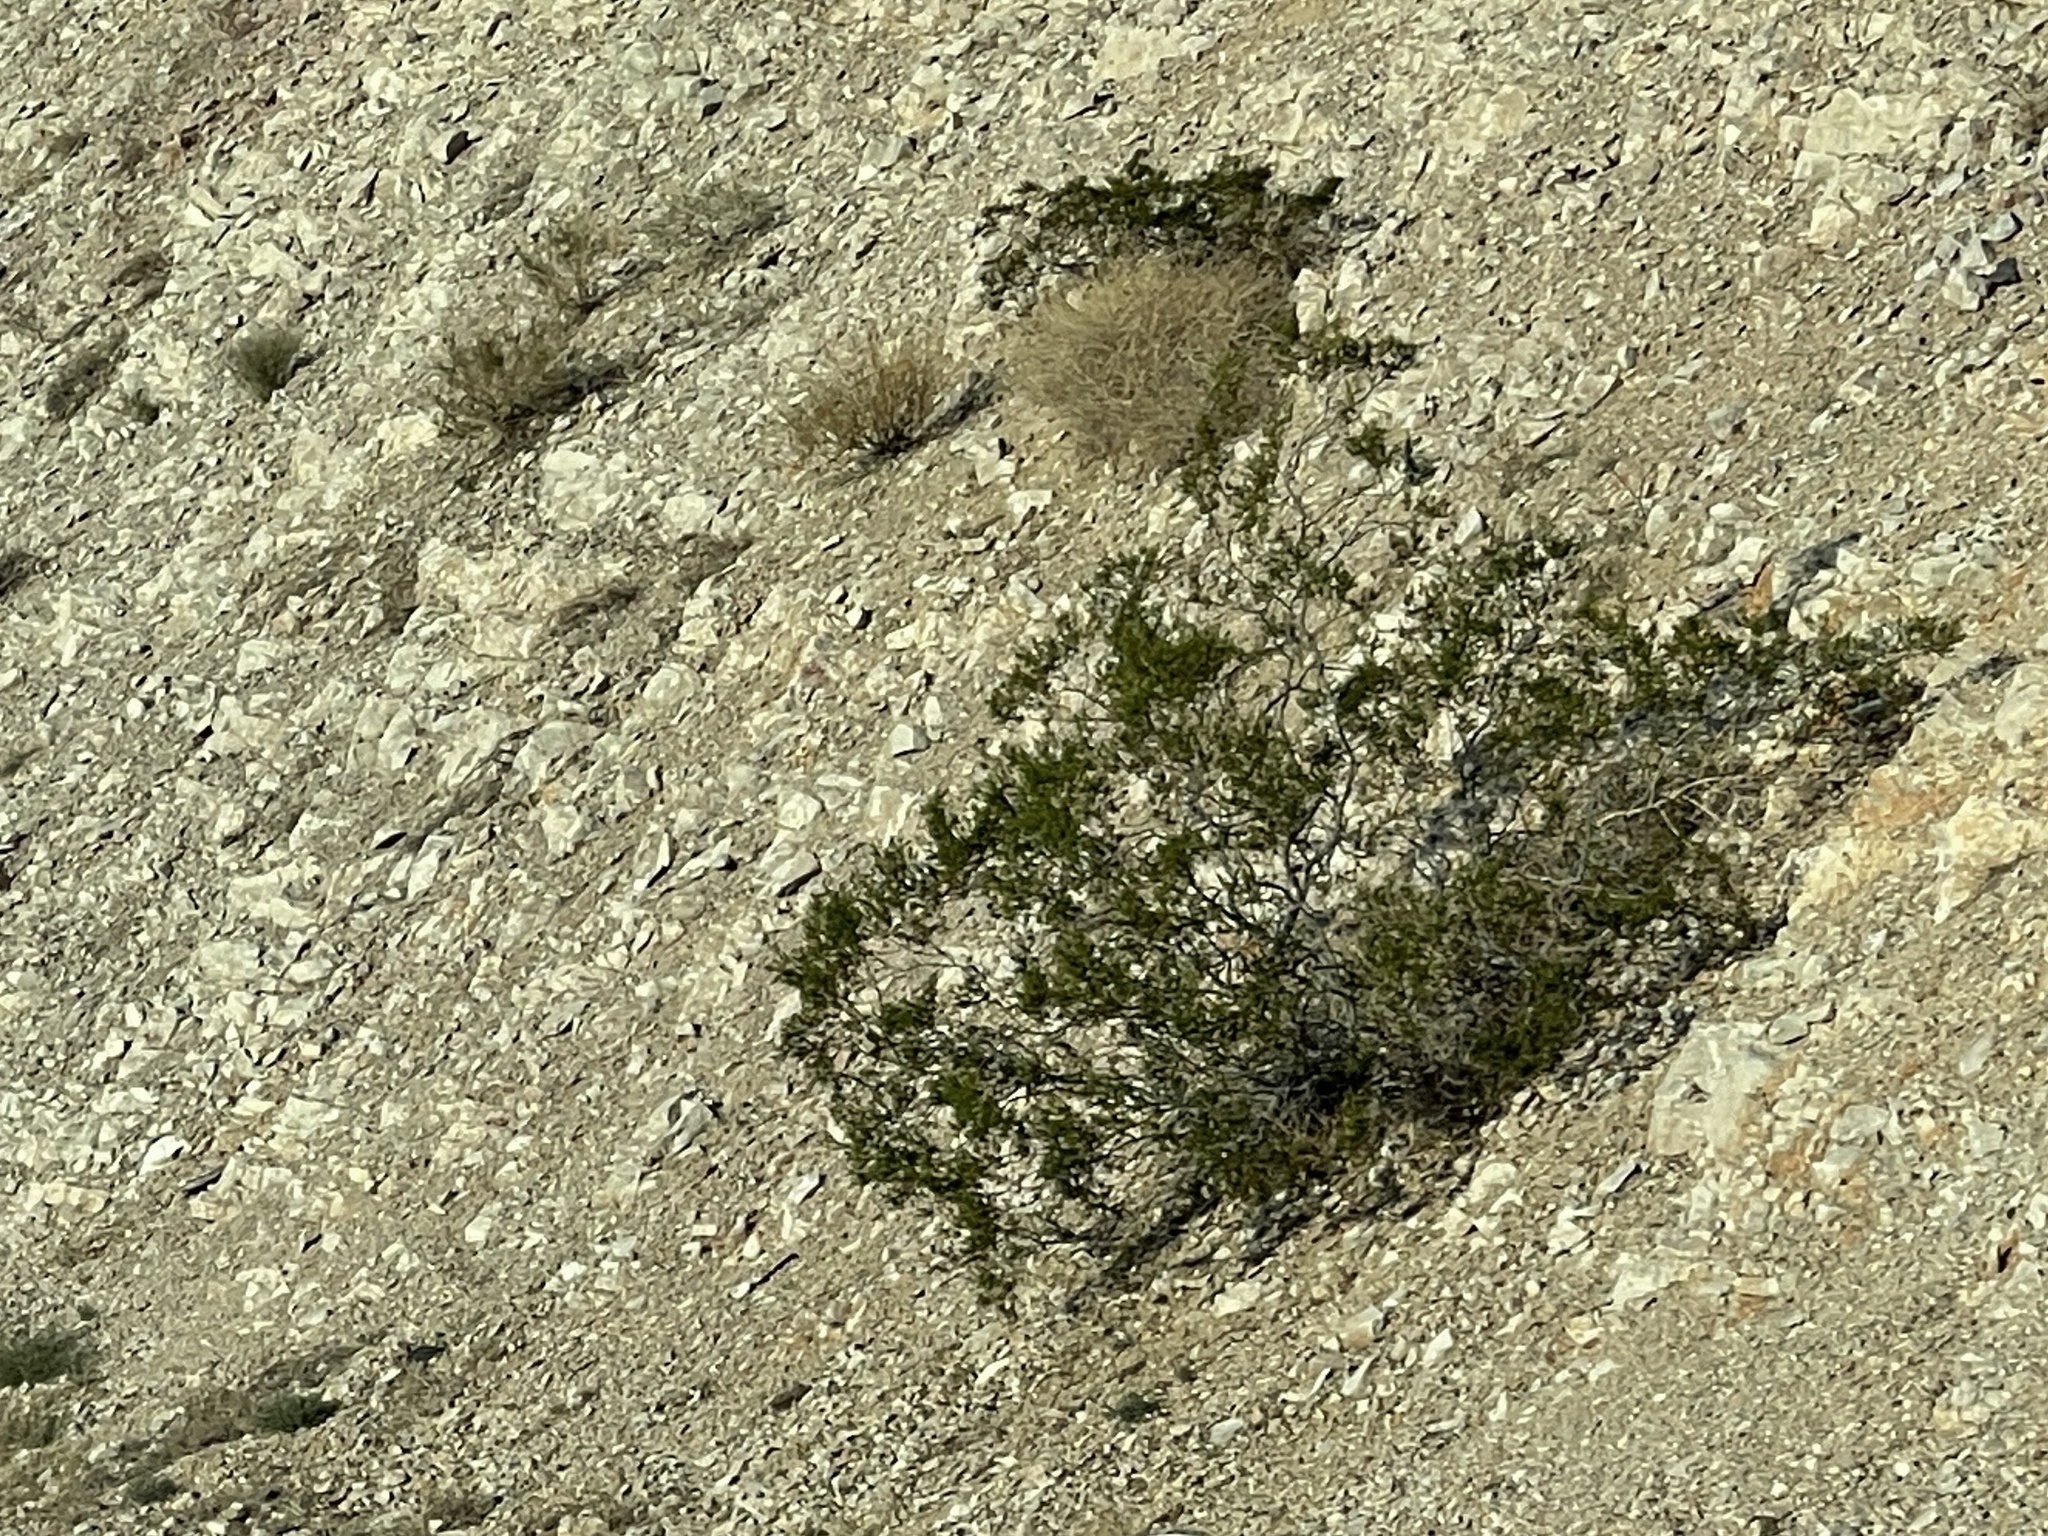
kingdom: Plantae
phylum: Tracheophyta
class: Magnoliopsida
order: Zygophyllales
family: Zygophyllaceae
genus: Larrea
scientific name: Larrea tridentata
